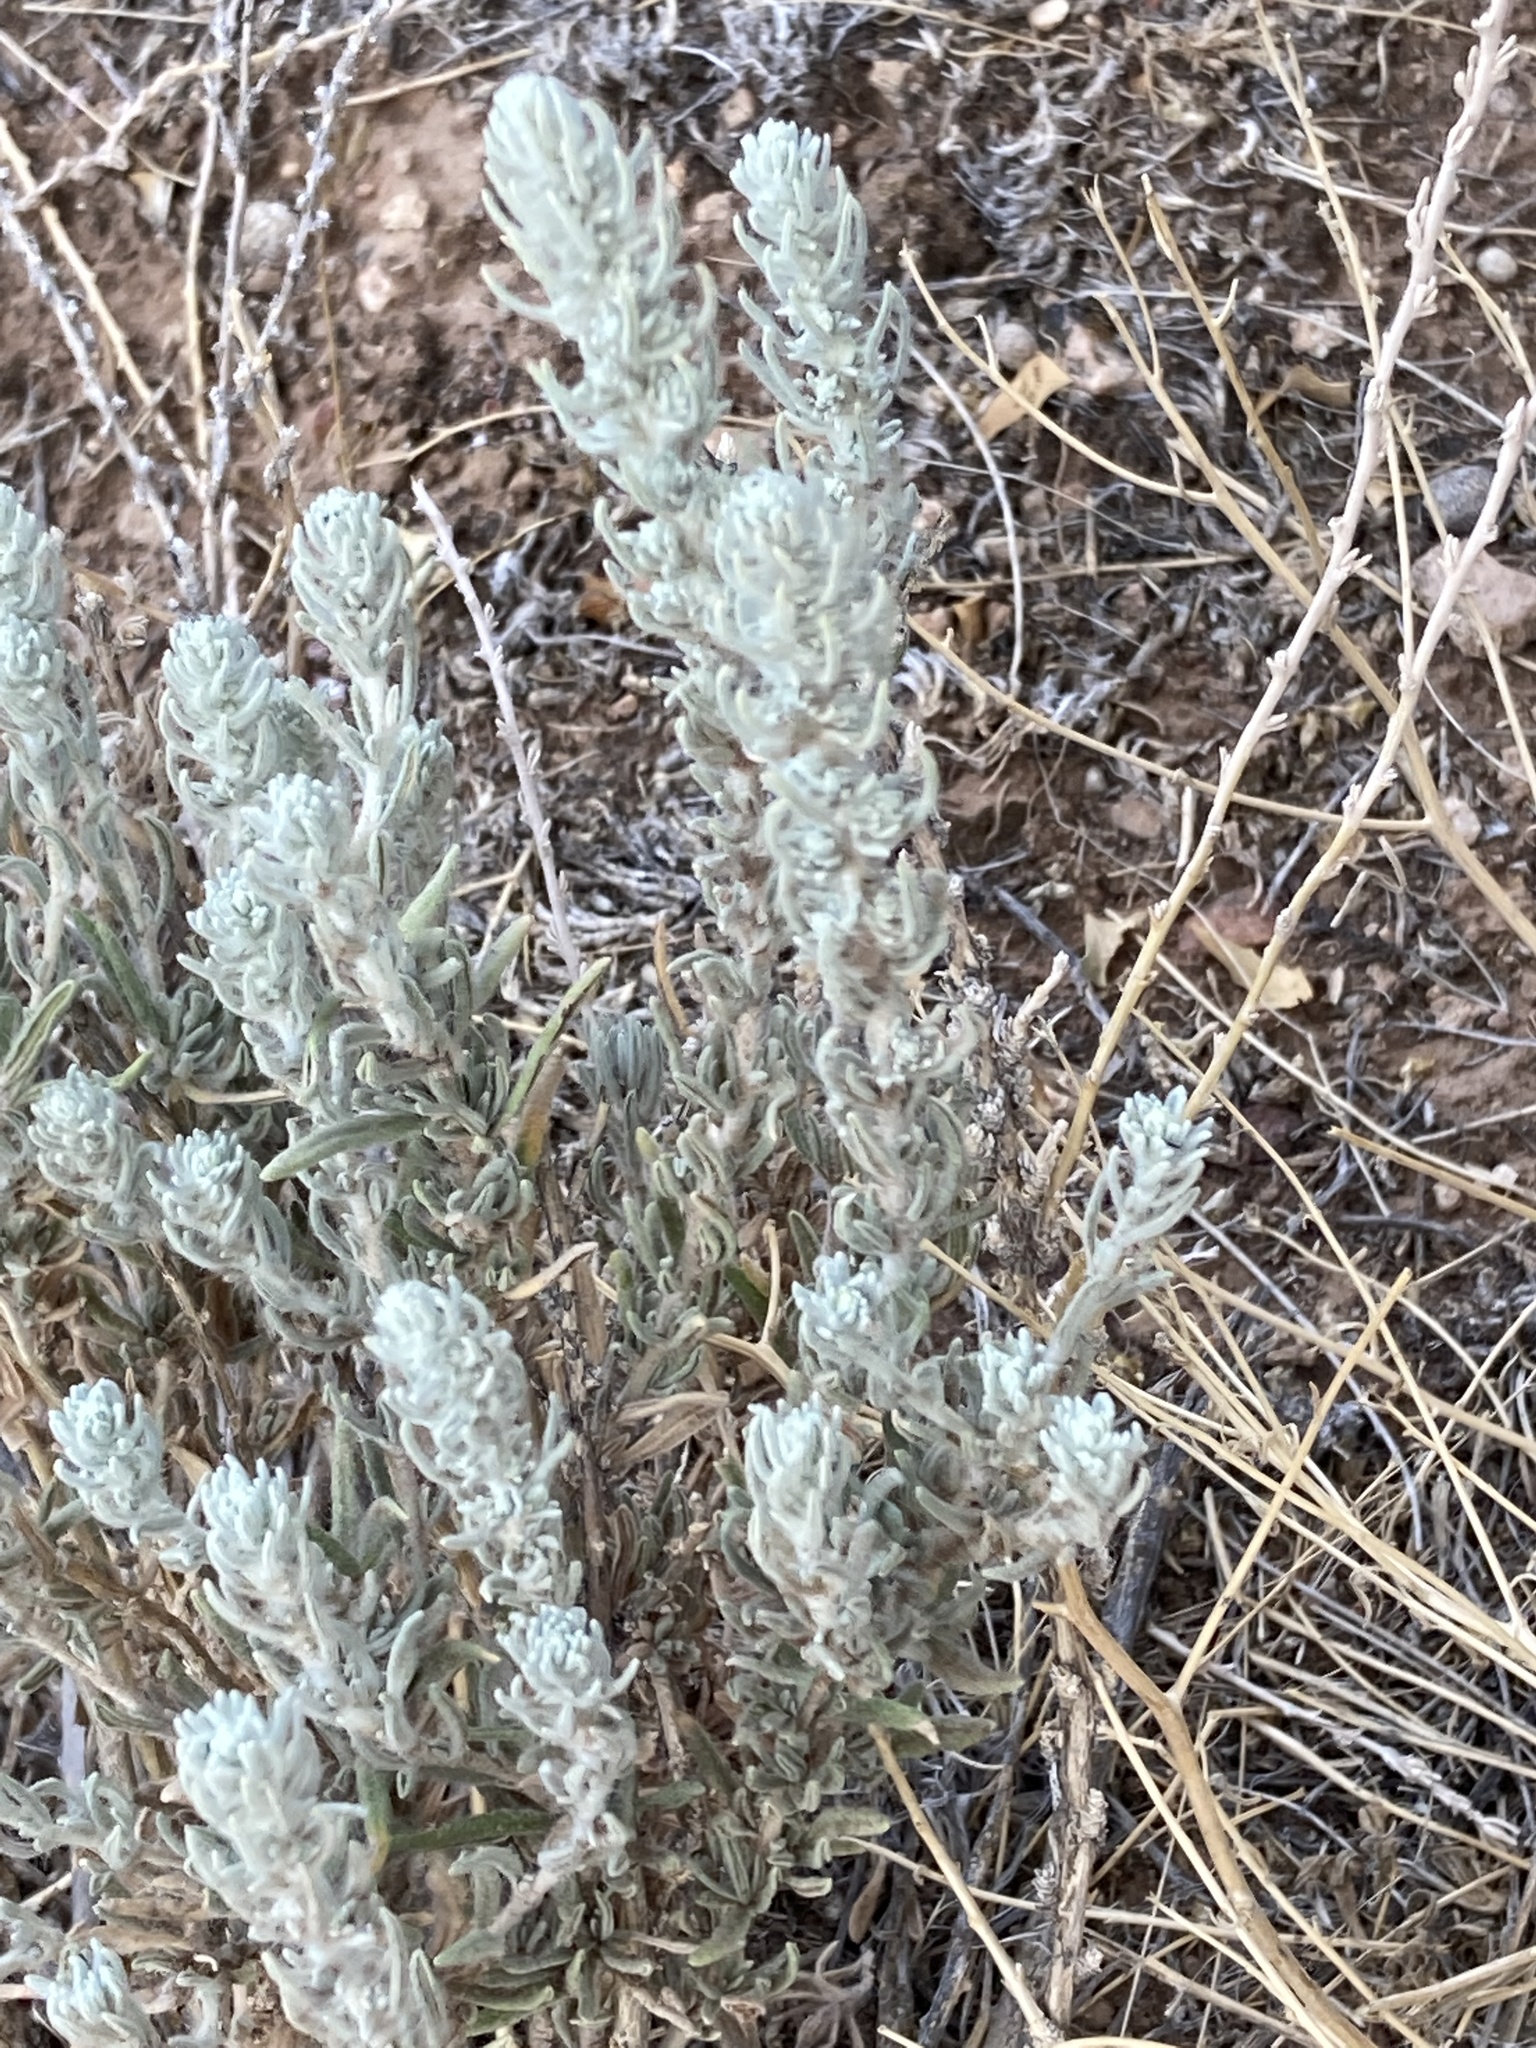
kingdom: Plantae
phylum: Tracheophyta
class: Magnoliopsida
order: Caryophyllales
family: Amaranthaceae
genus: Krascheninnikovia
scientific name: Krascheninnikovia lanata
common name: Winterfat
